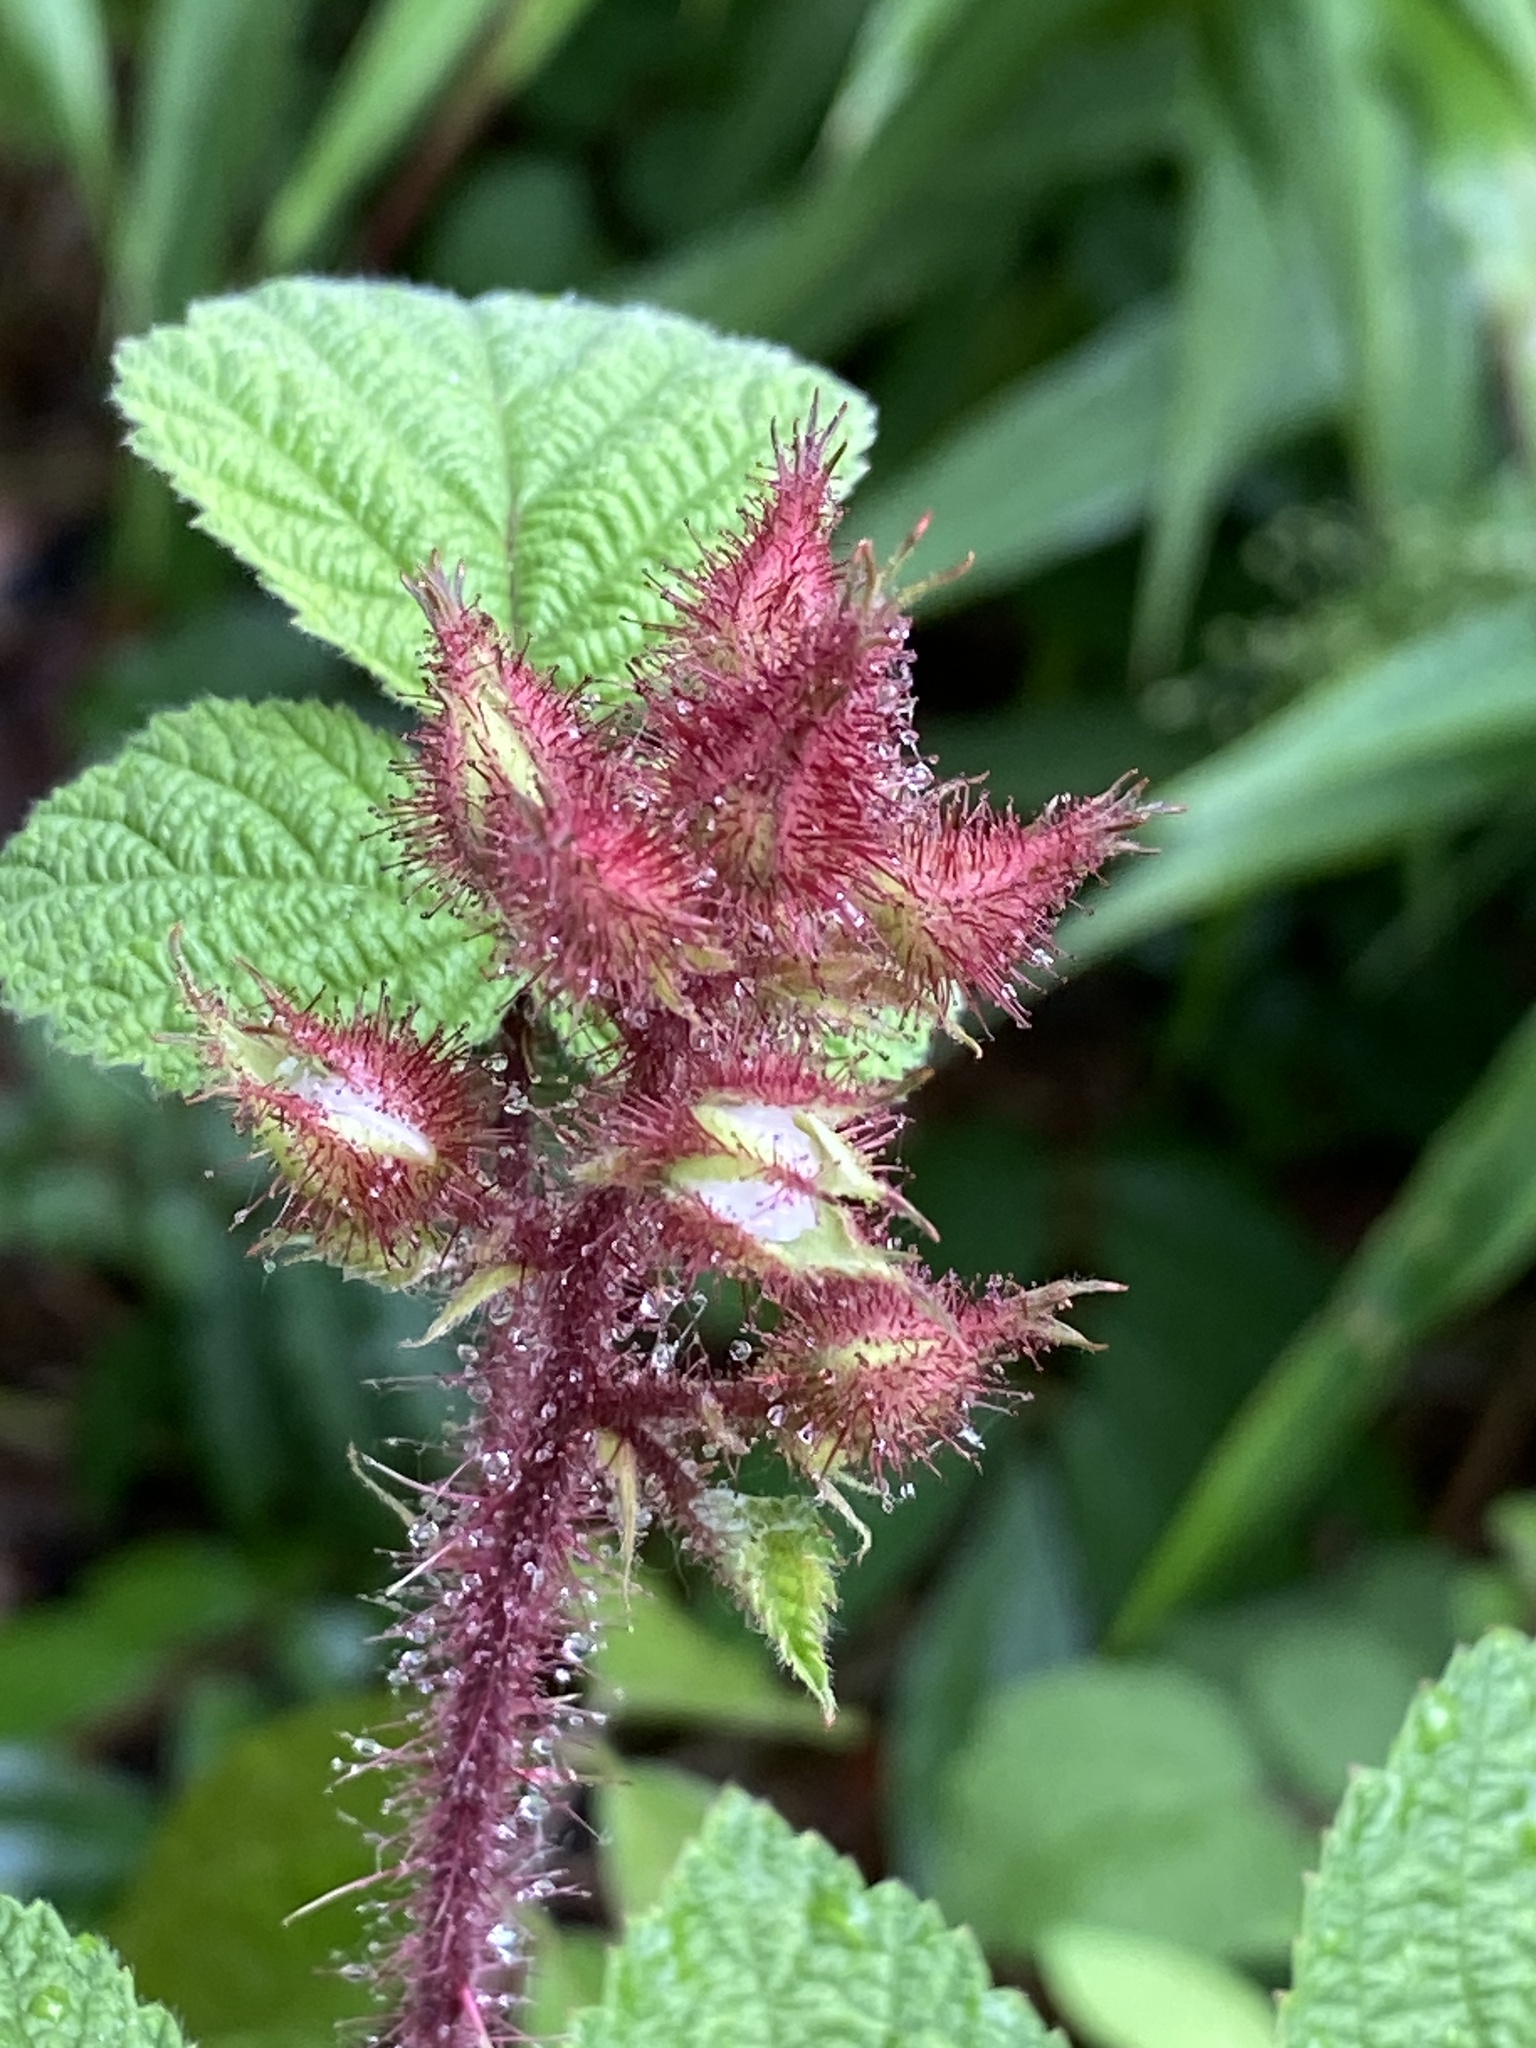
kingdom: Plantae
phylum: Tracheophyta
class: Magnoliopsida
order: Rosales
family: Rosaceae
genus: Rubus
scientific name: Rubus phoenicolasius
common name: Japanese wineberry
